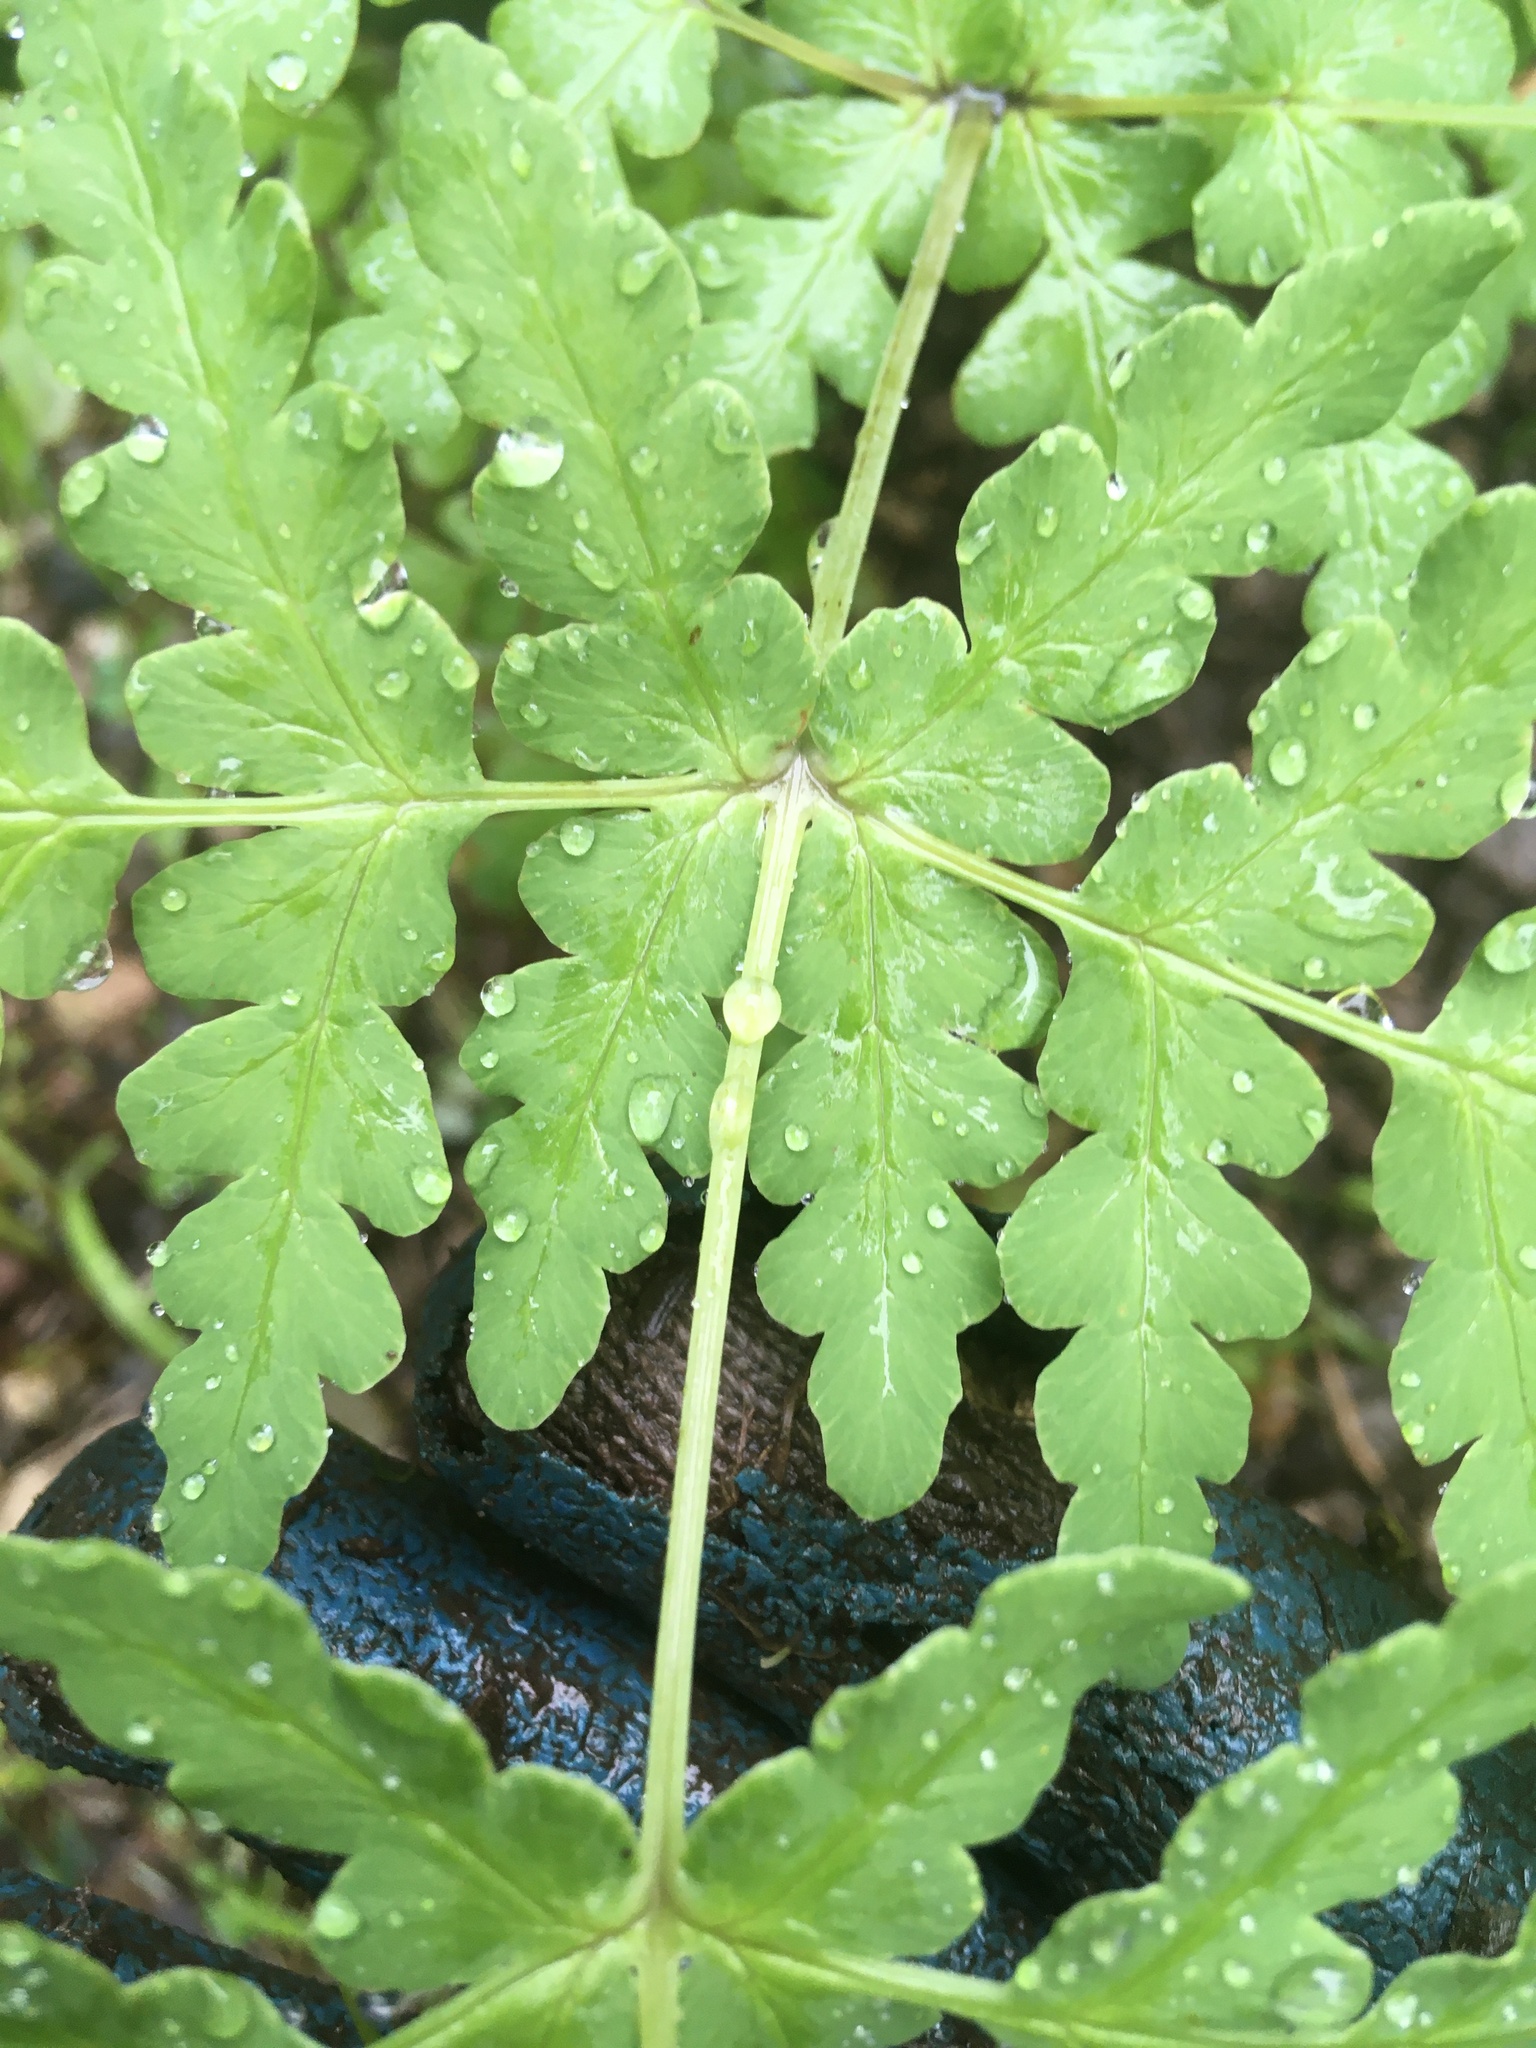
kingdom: Plantae
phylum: Tracheophyta
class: Polypodiopsida
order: Polypodiales
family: Dennstaedtiaceae
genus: Histiopteris
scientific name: Histiopteris incisa
